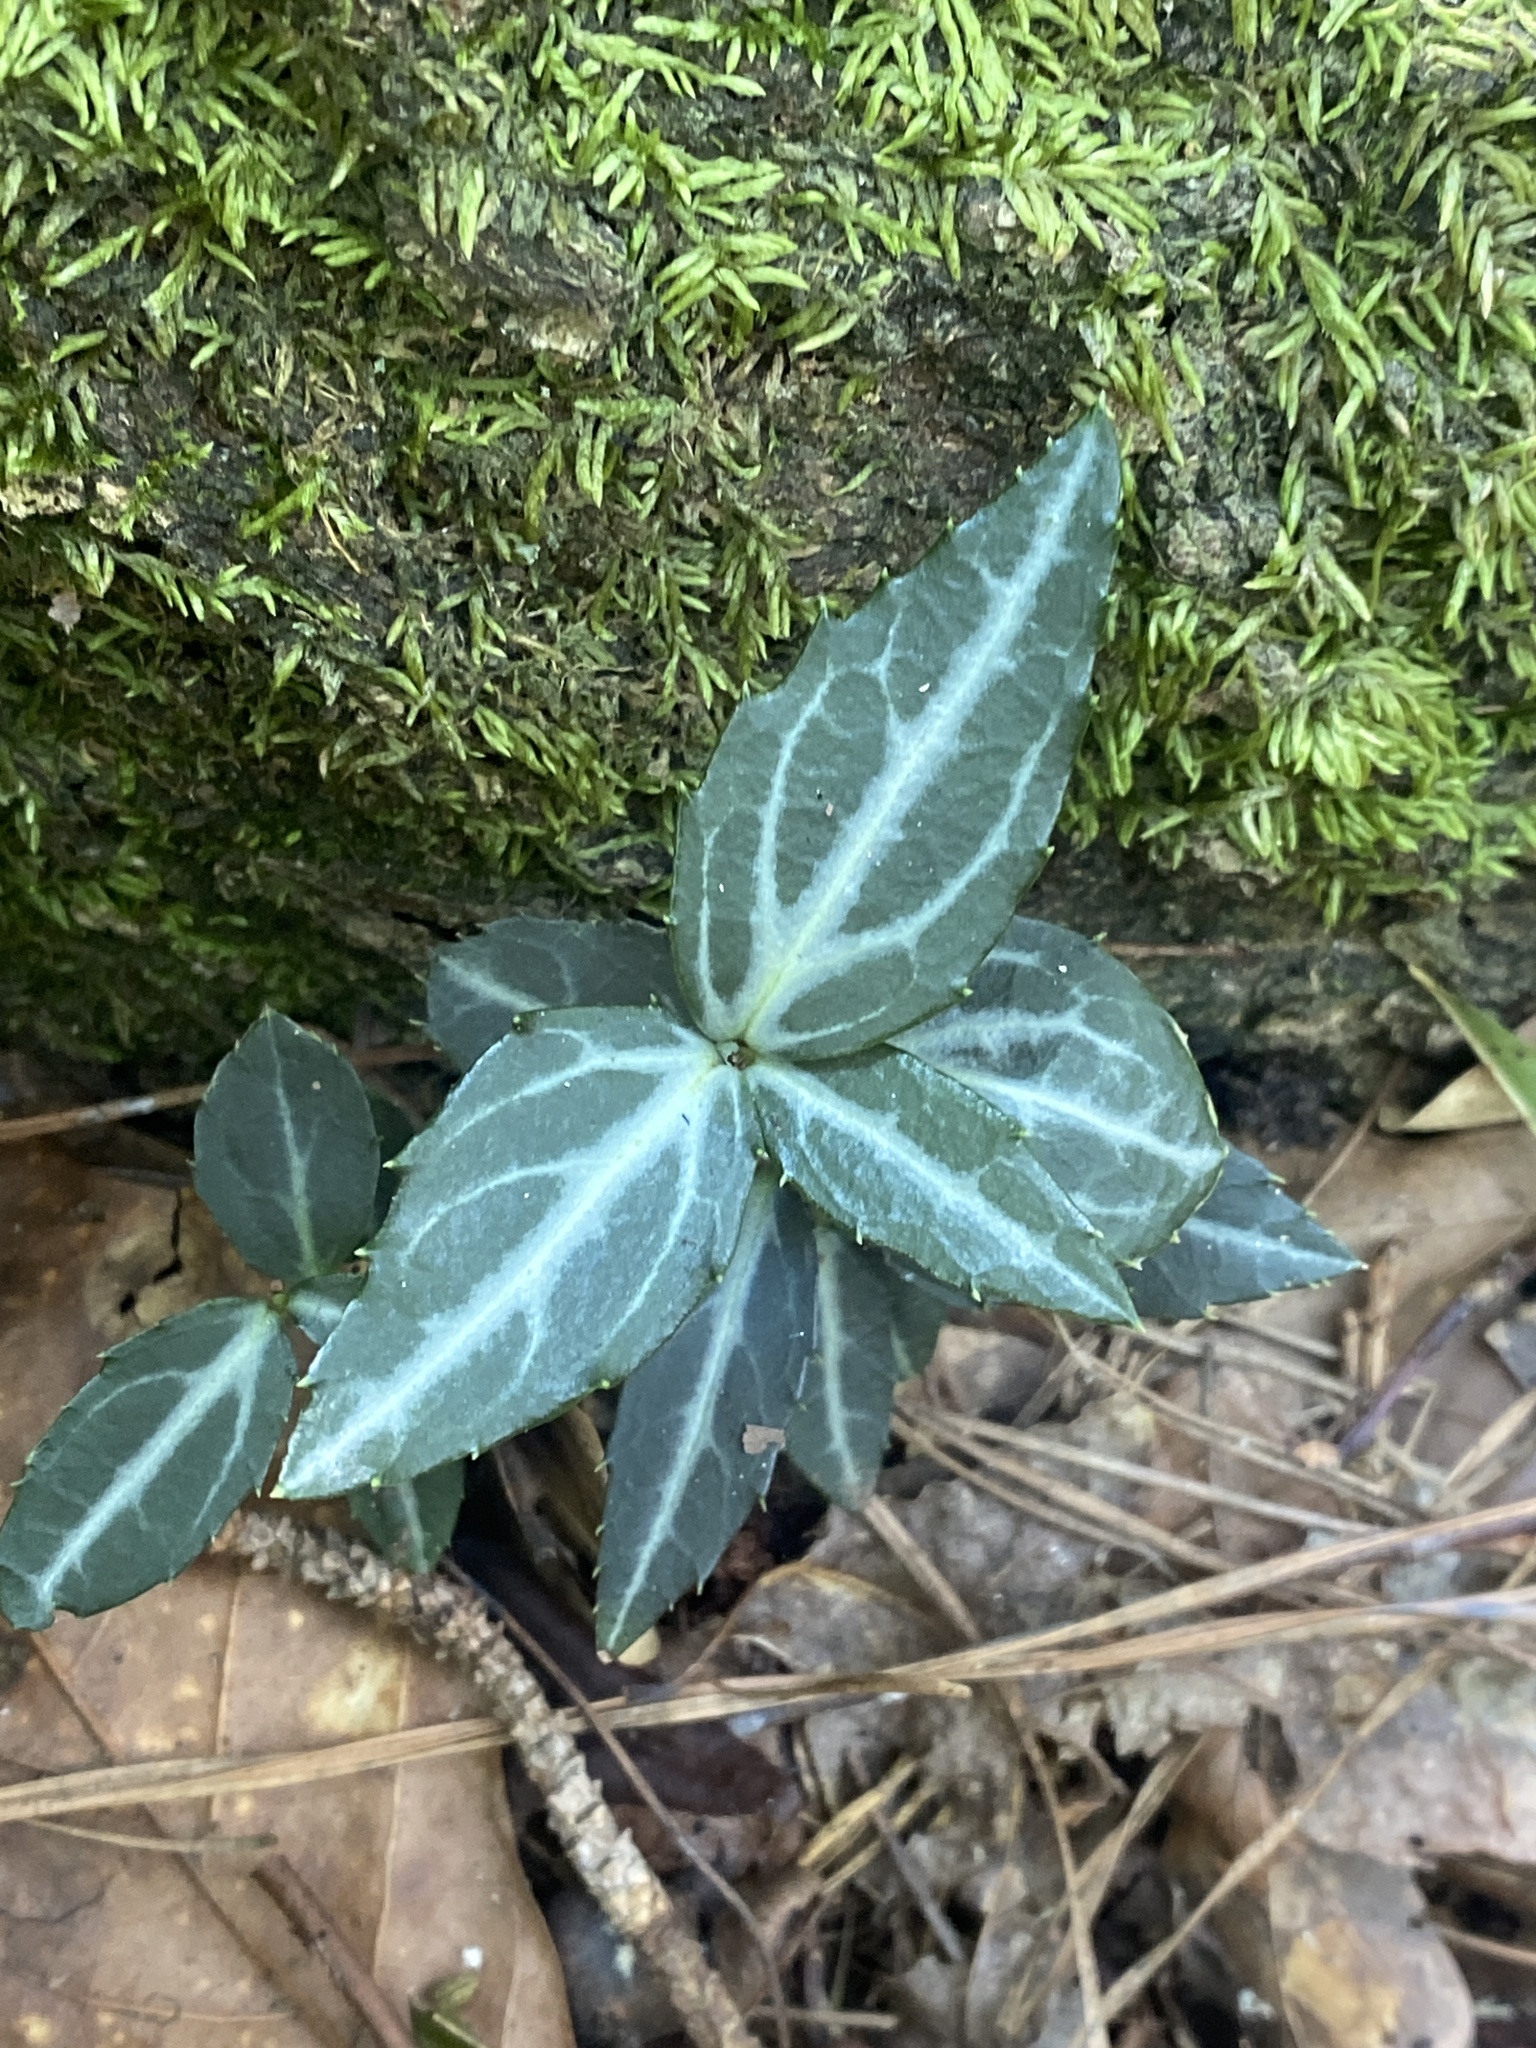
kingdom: Plantae
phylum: Tracheophyta
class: Magnoliopsida
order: Ericales
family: Ericaceae
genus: Chimaphila
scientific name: Chimaphila maculata
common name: Spotted pipsissewa
